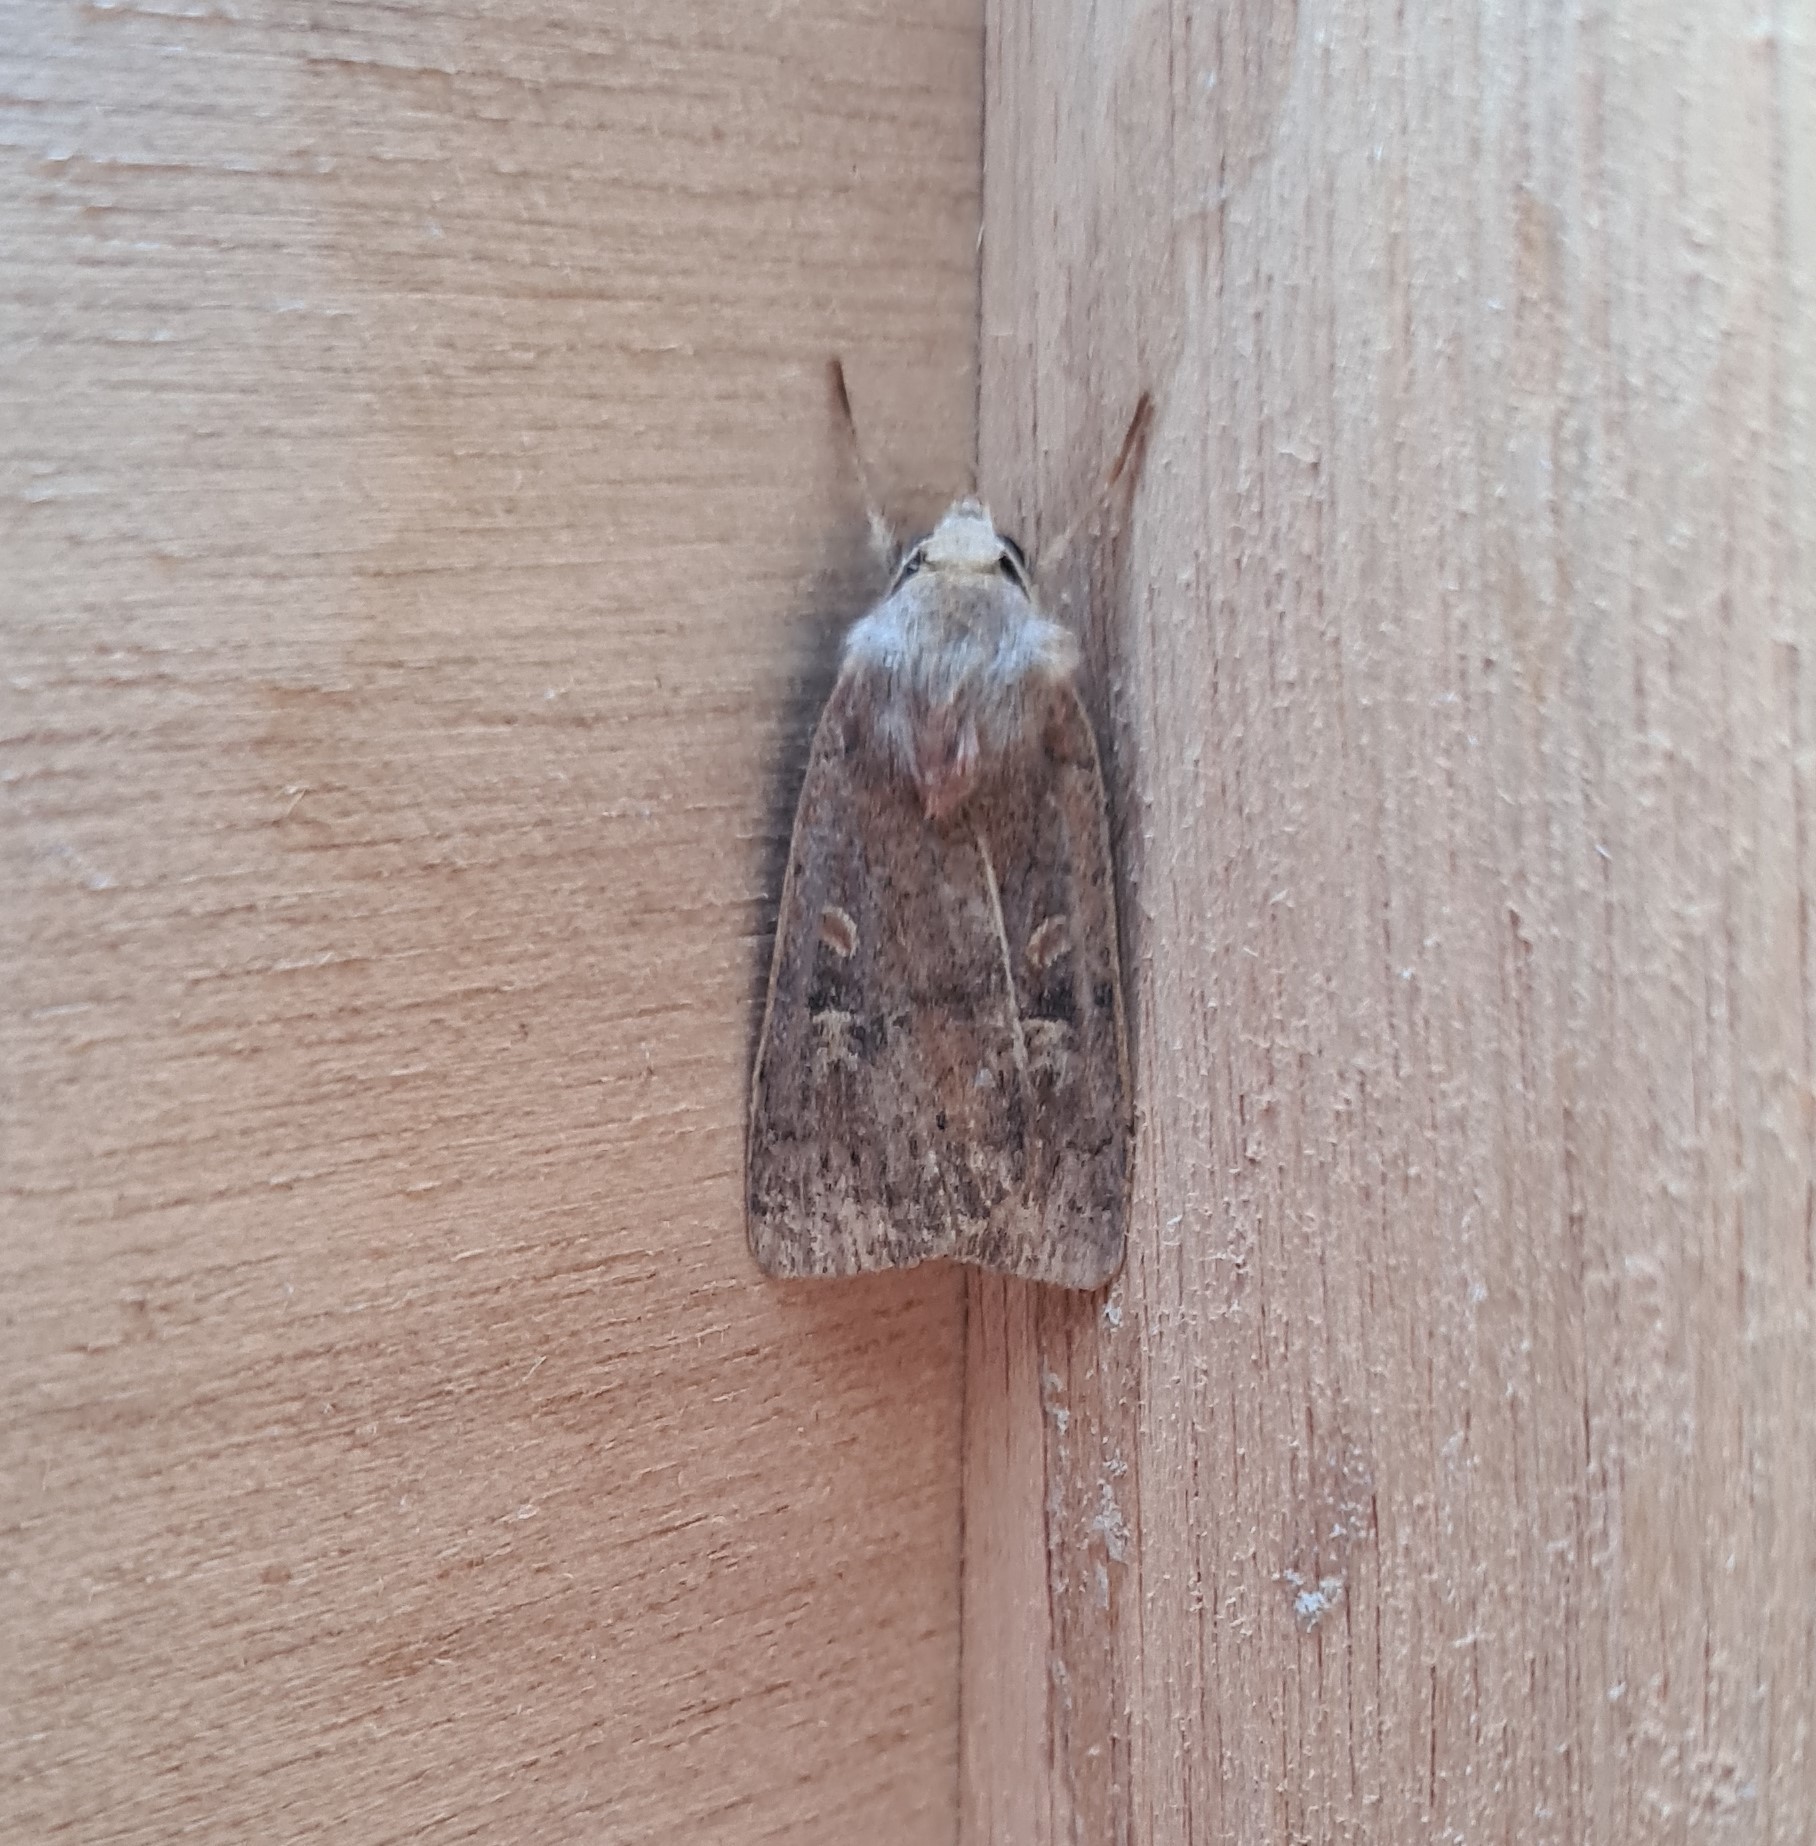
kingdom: Animalia
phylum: Arthropoda
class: Insecta
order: Lepidoptera
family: Noctuidae
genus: Xestia
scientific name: Xestia xanthographa
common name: Square-spot rustic
